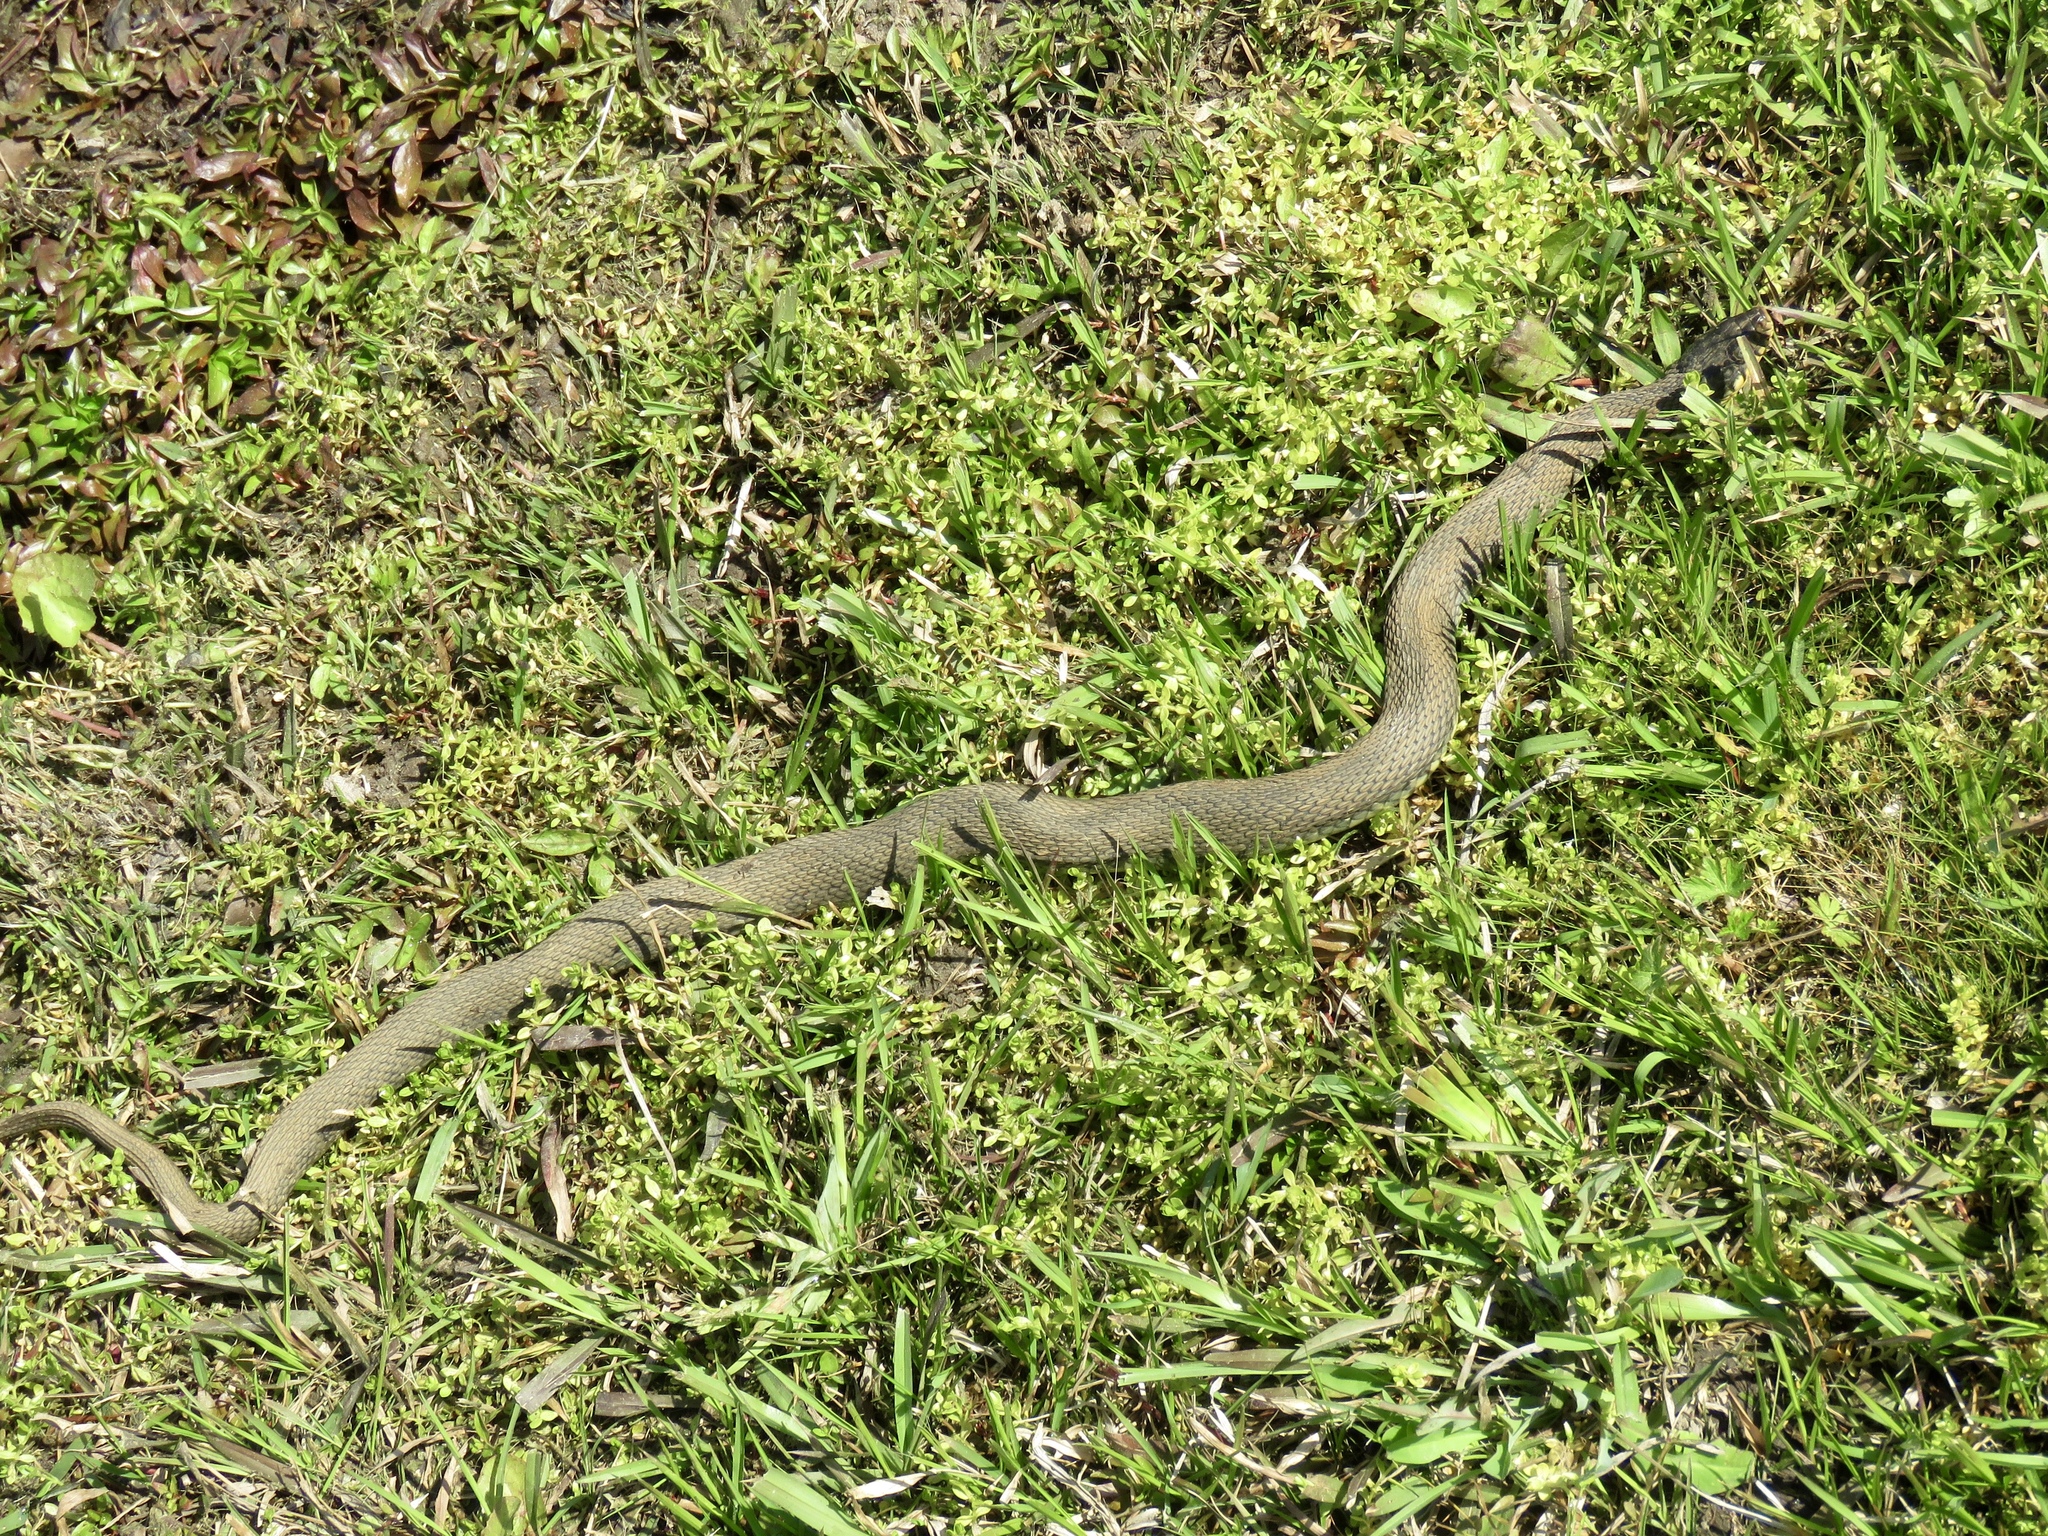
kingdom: Animalia
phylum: Chordata
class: Squamata
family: Colubridae
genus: Nerodia
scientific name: Nerodia erythrogaster
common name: Plainbelly water snake
